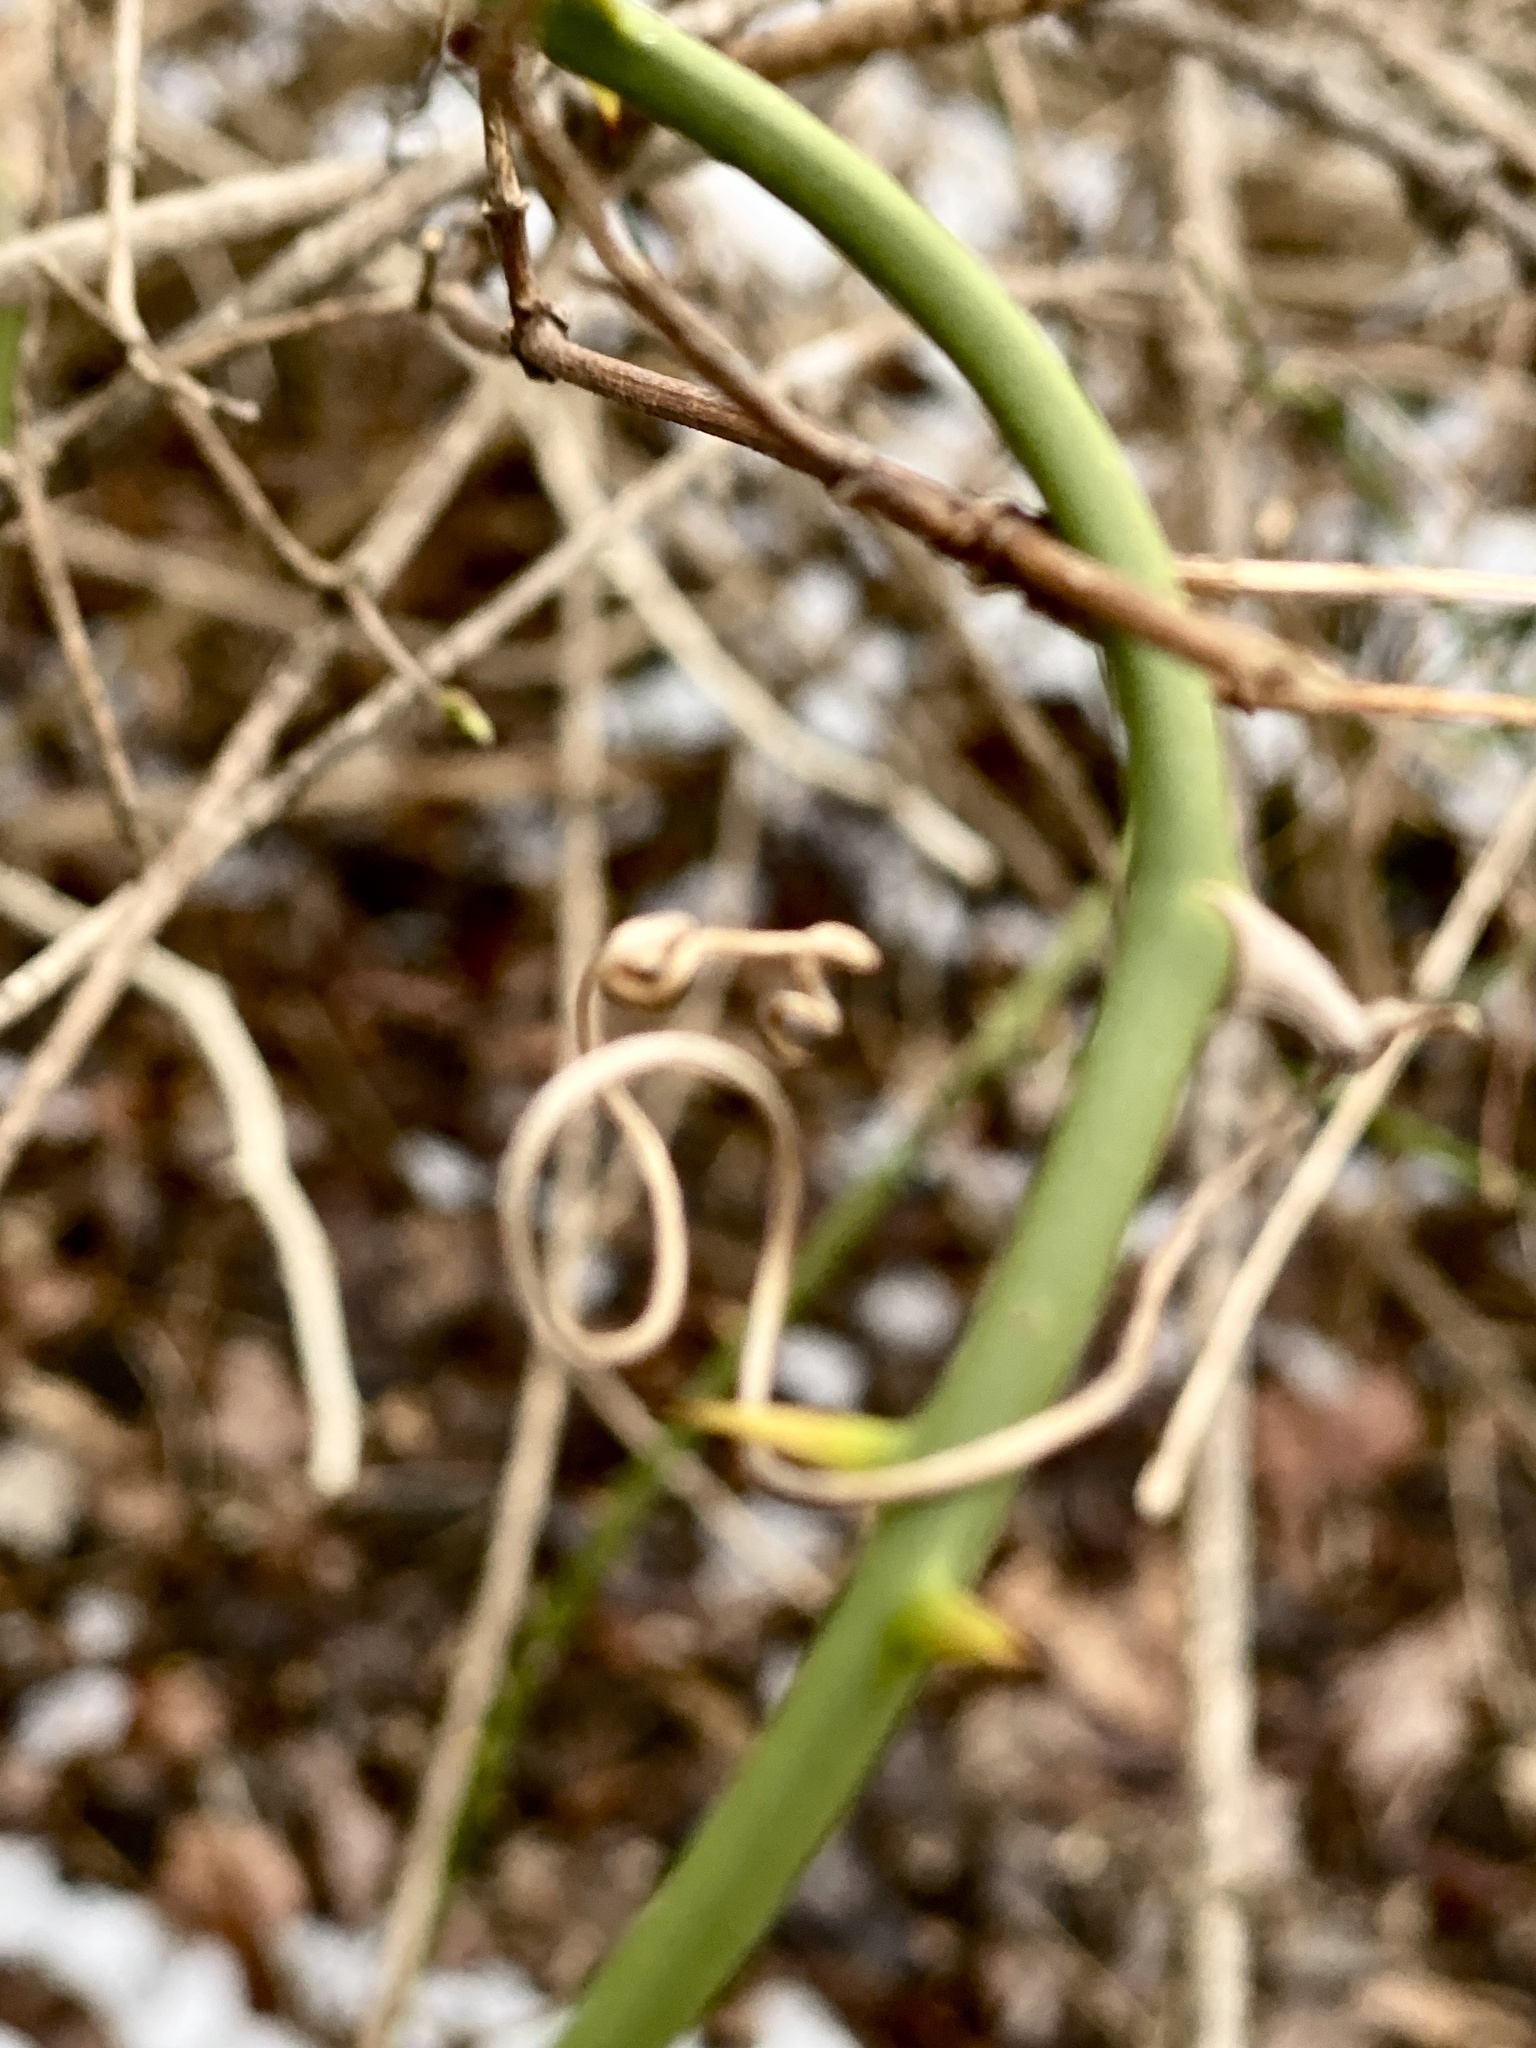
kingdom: Plantae
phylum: Tracheophyta
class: Liliopsida
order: Liliales
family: Smilacaceae
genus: Smilax
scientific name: Smilax rotundifolia
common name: Bullbriar
